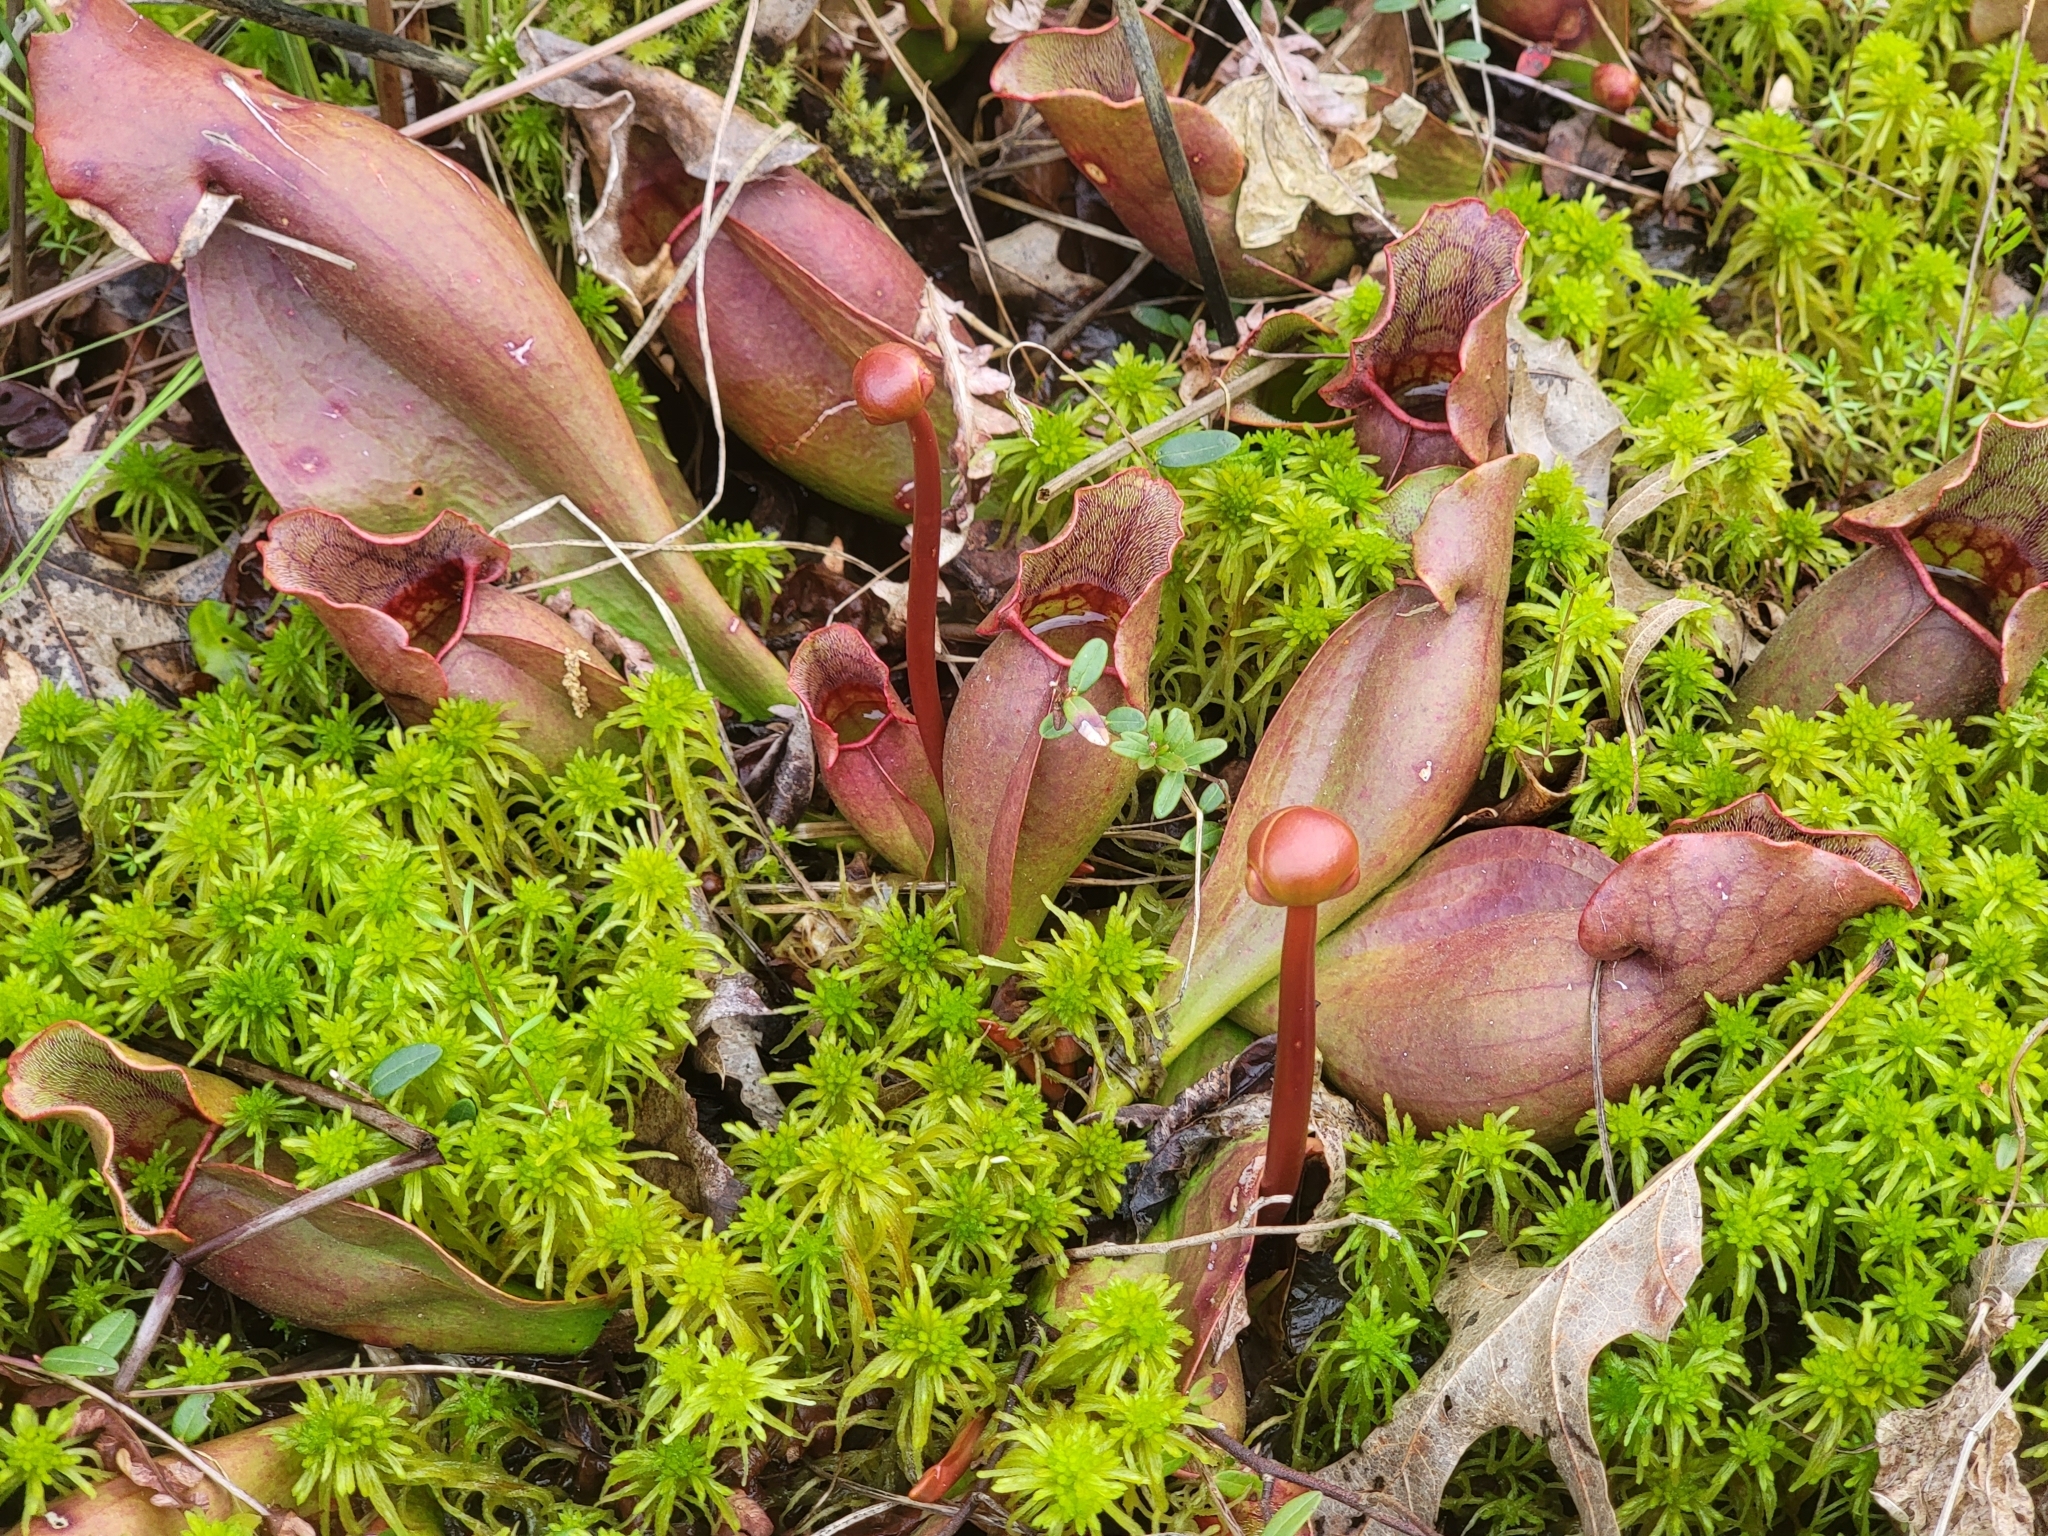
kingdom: Plantae
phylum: Tracheophyta
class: Magnoliopsida
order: Ericales
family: Sarraceniaceae
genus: Sarracenia
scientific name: Sarracenia purpurea
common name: Pitcherplant
